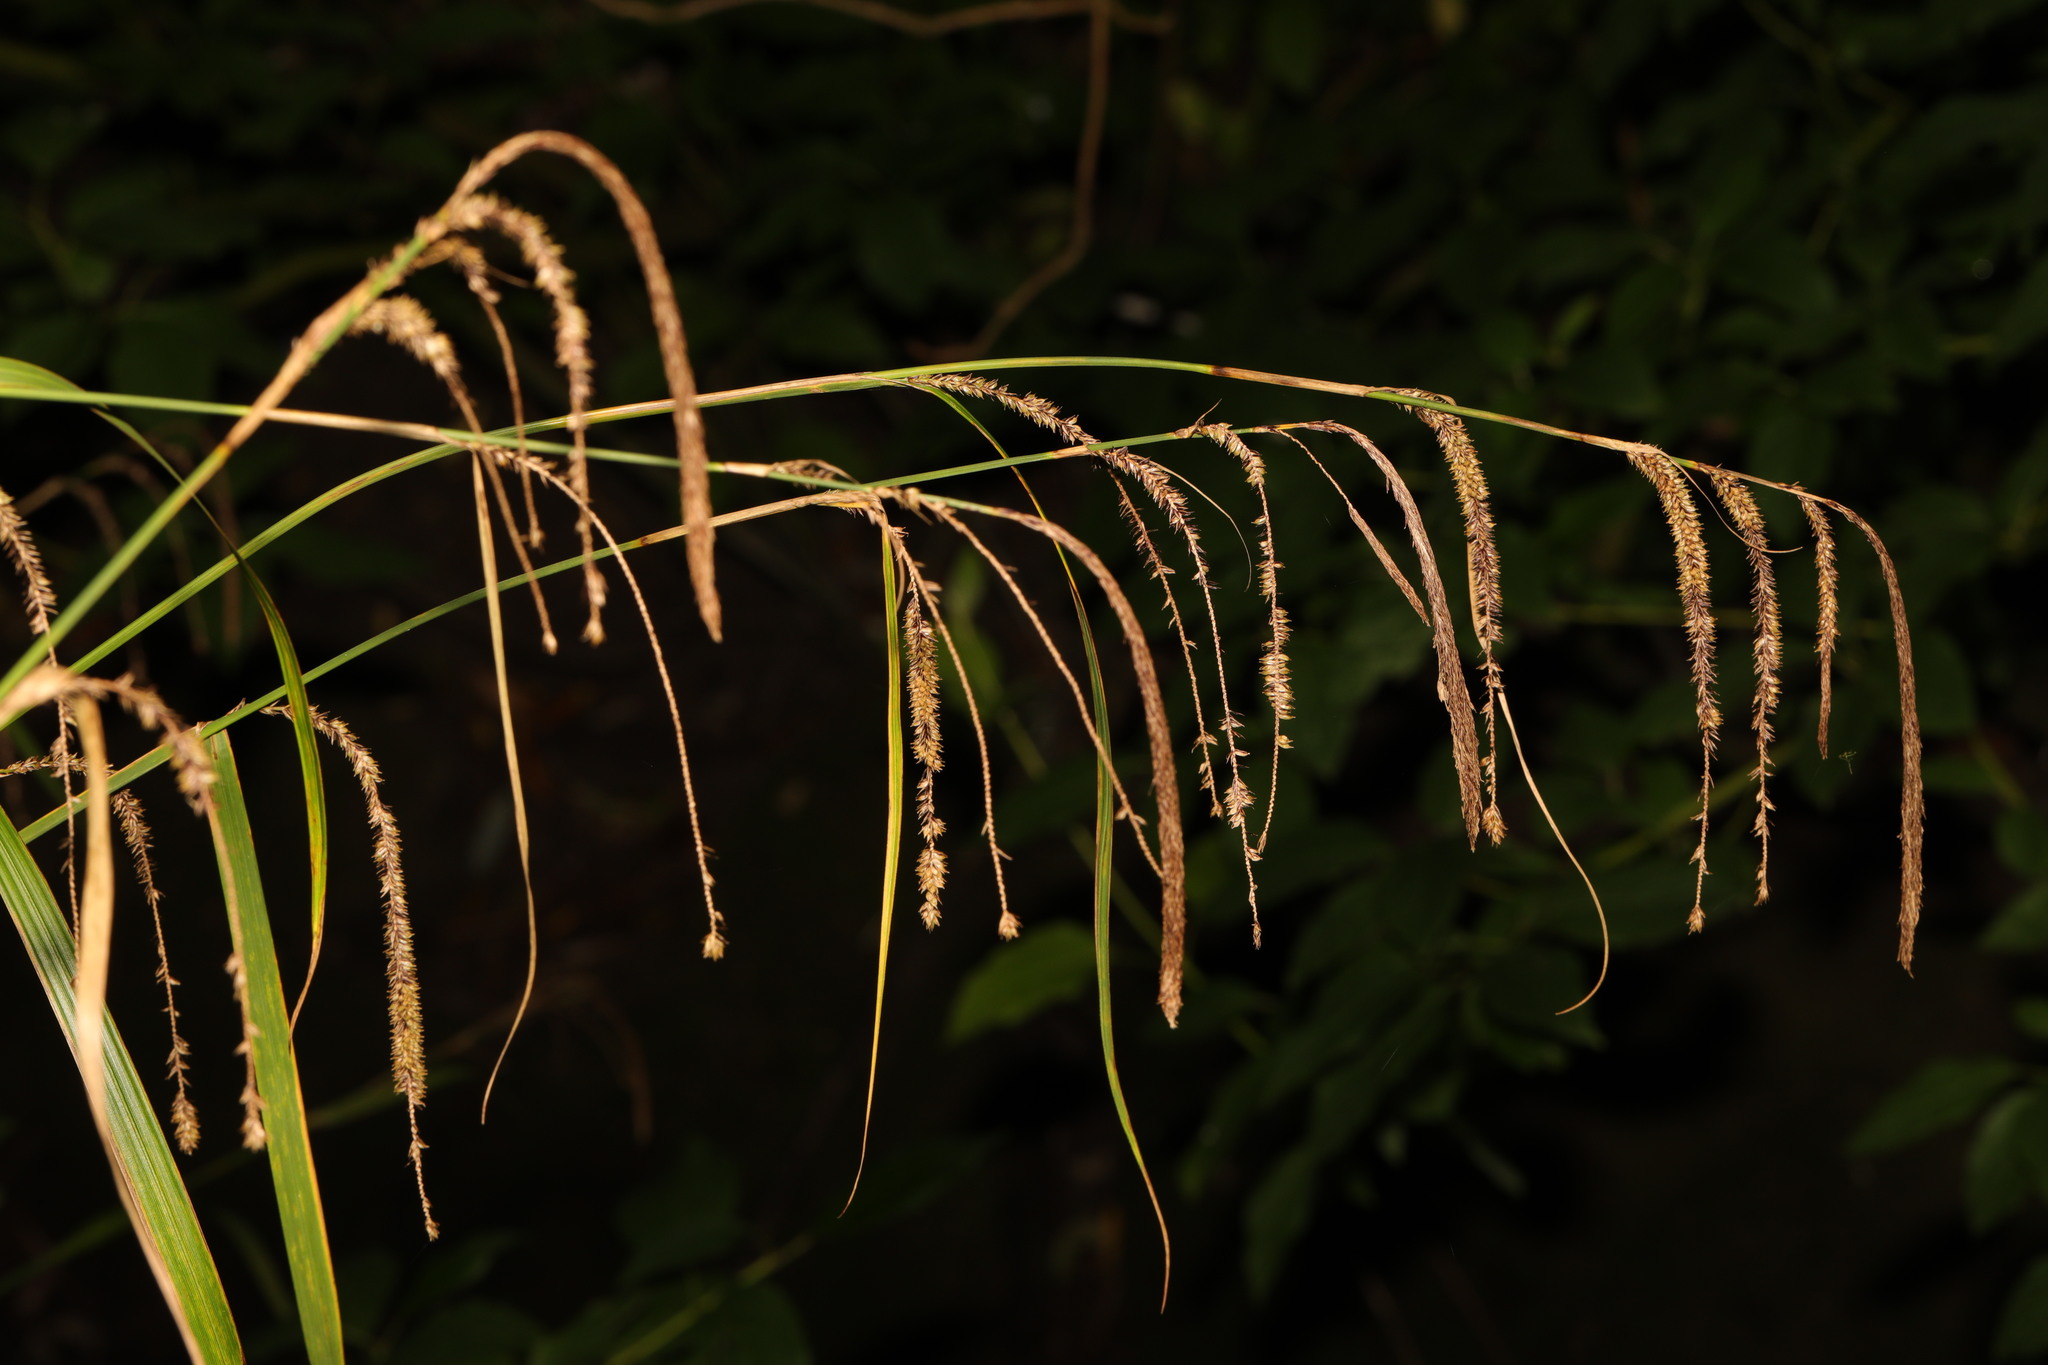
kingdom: Plantae
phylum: Tracheophyta
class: Liliopsida
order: Poales
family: Cyperaceae
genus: Carex
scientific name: Carex pendula
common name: Pendulous sedge
